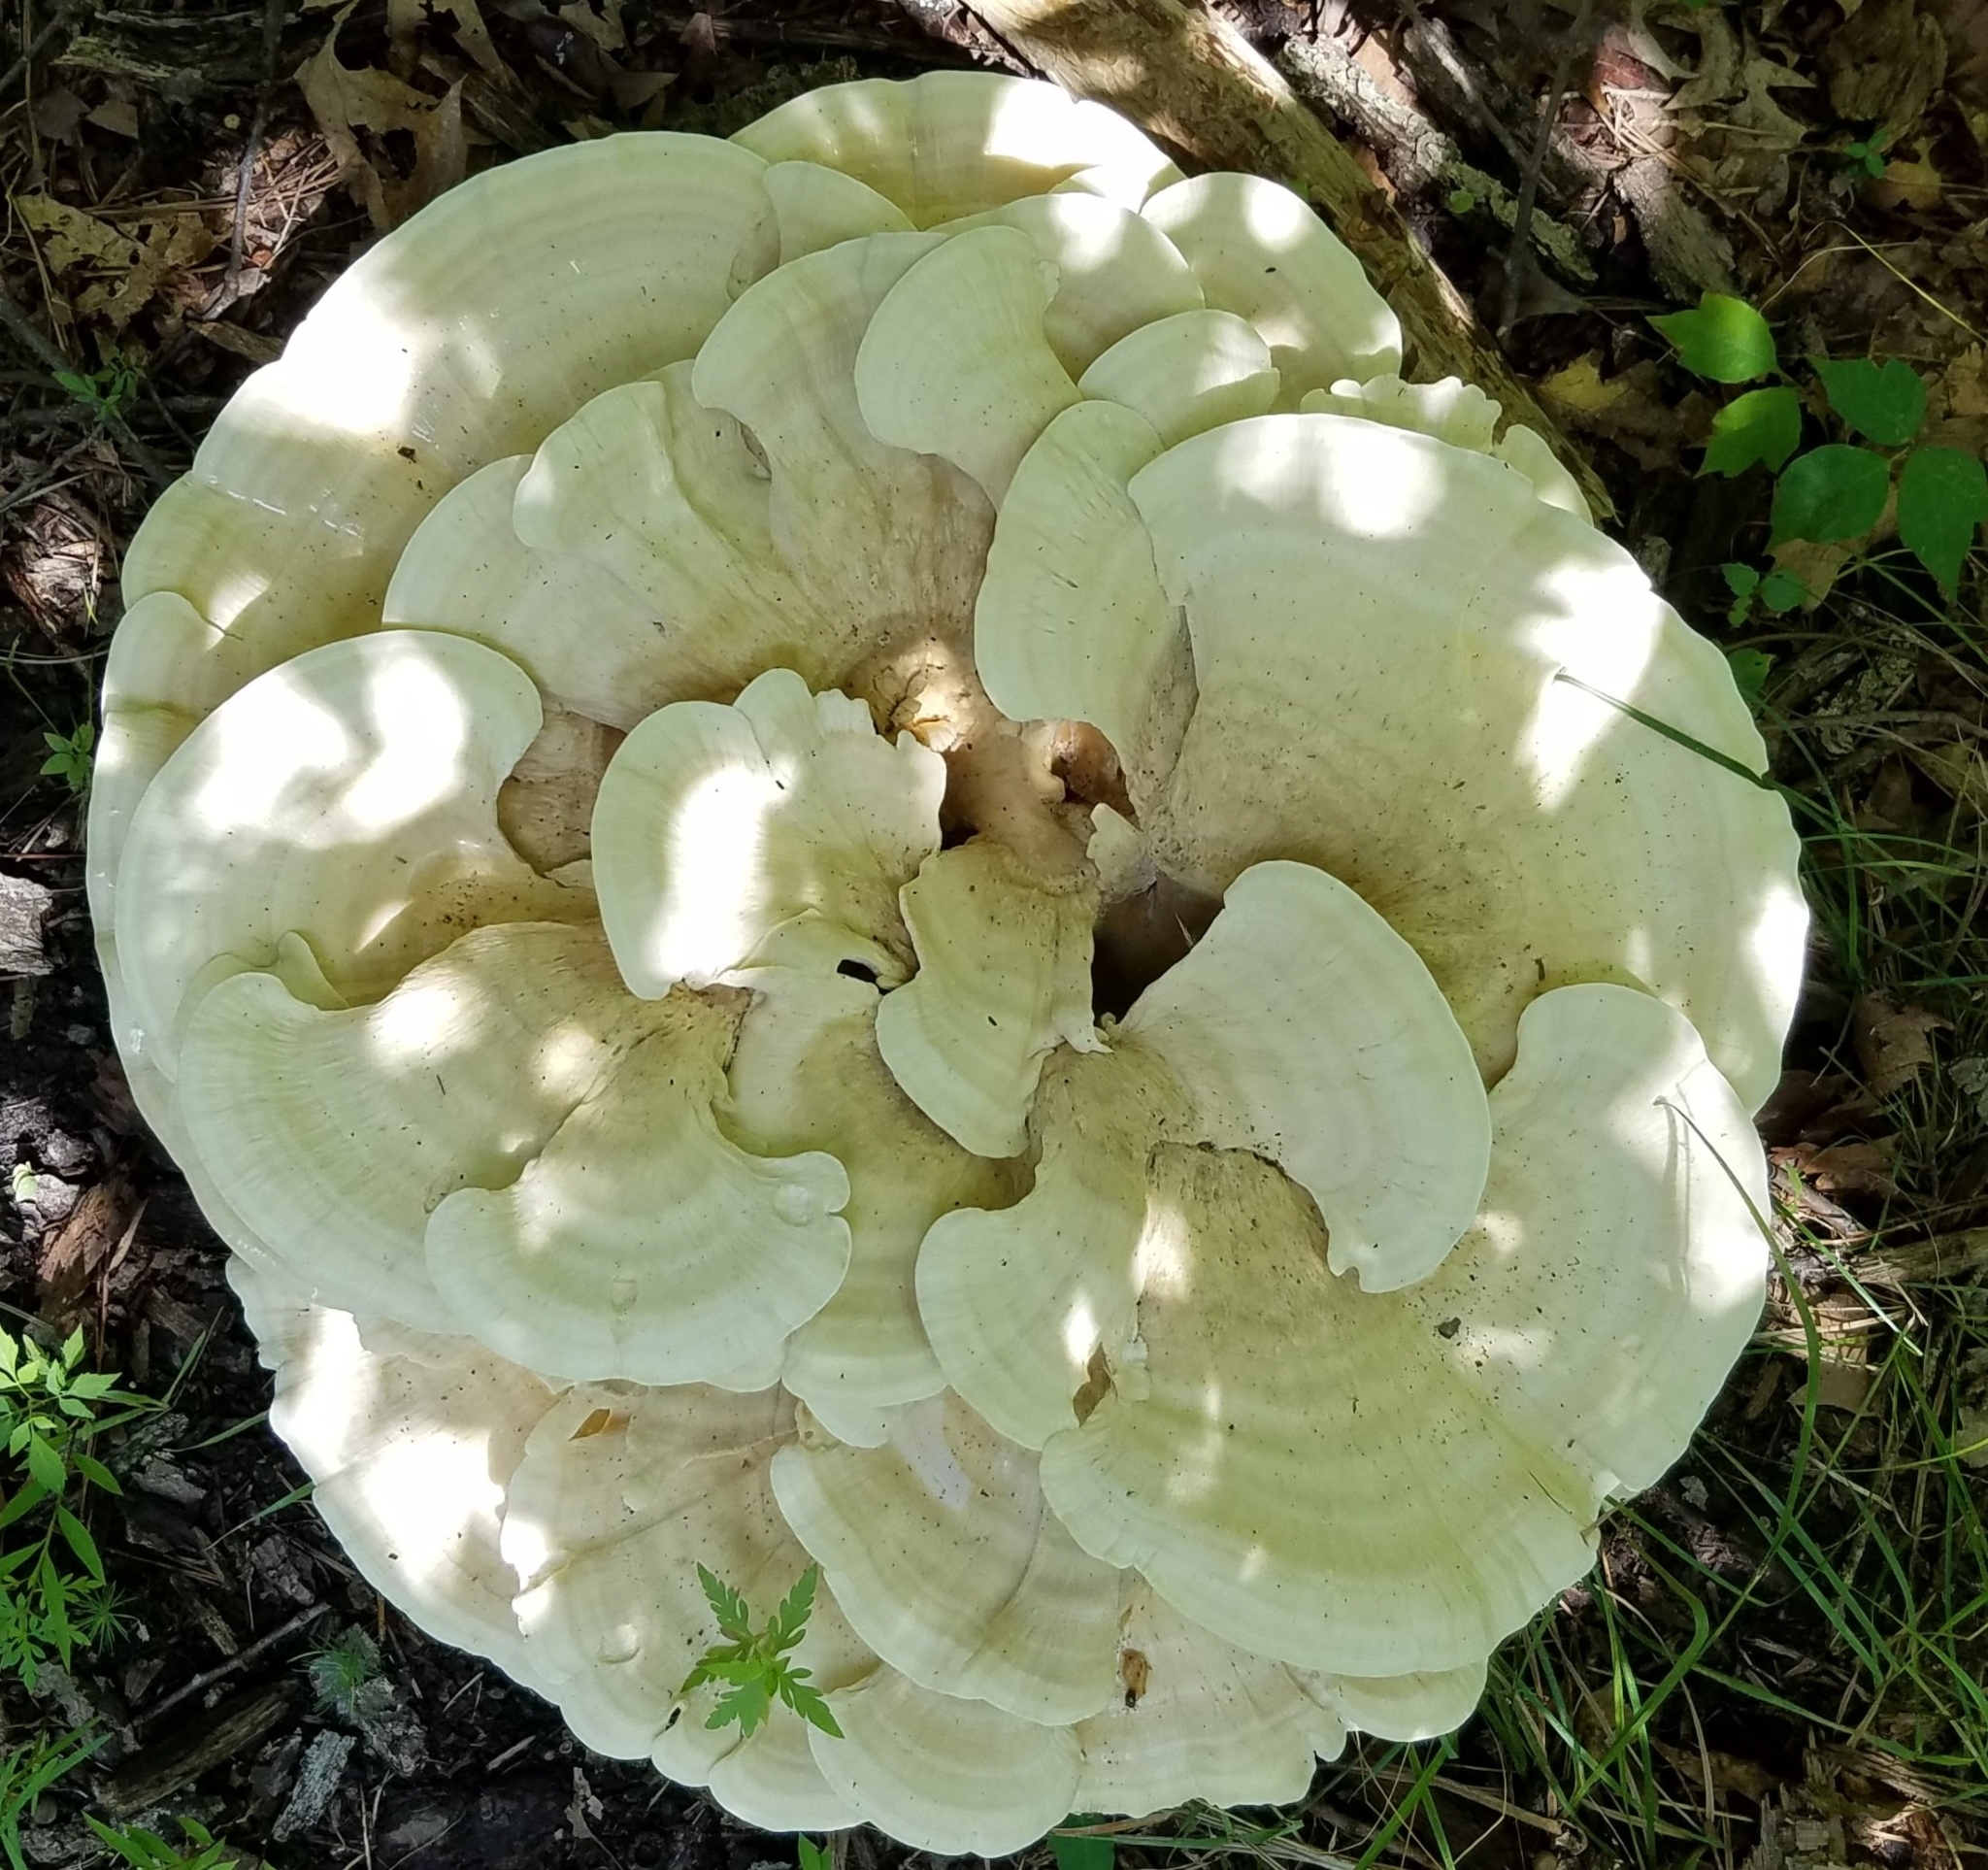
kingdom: Fungi
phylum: Basidiomycota
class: Agaricomycetes
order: Russulales
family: Bondarzewiaceae
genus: Bondarzewia
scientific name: Bondarzewia berkeleyi
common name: Berkeley's polypore
